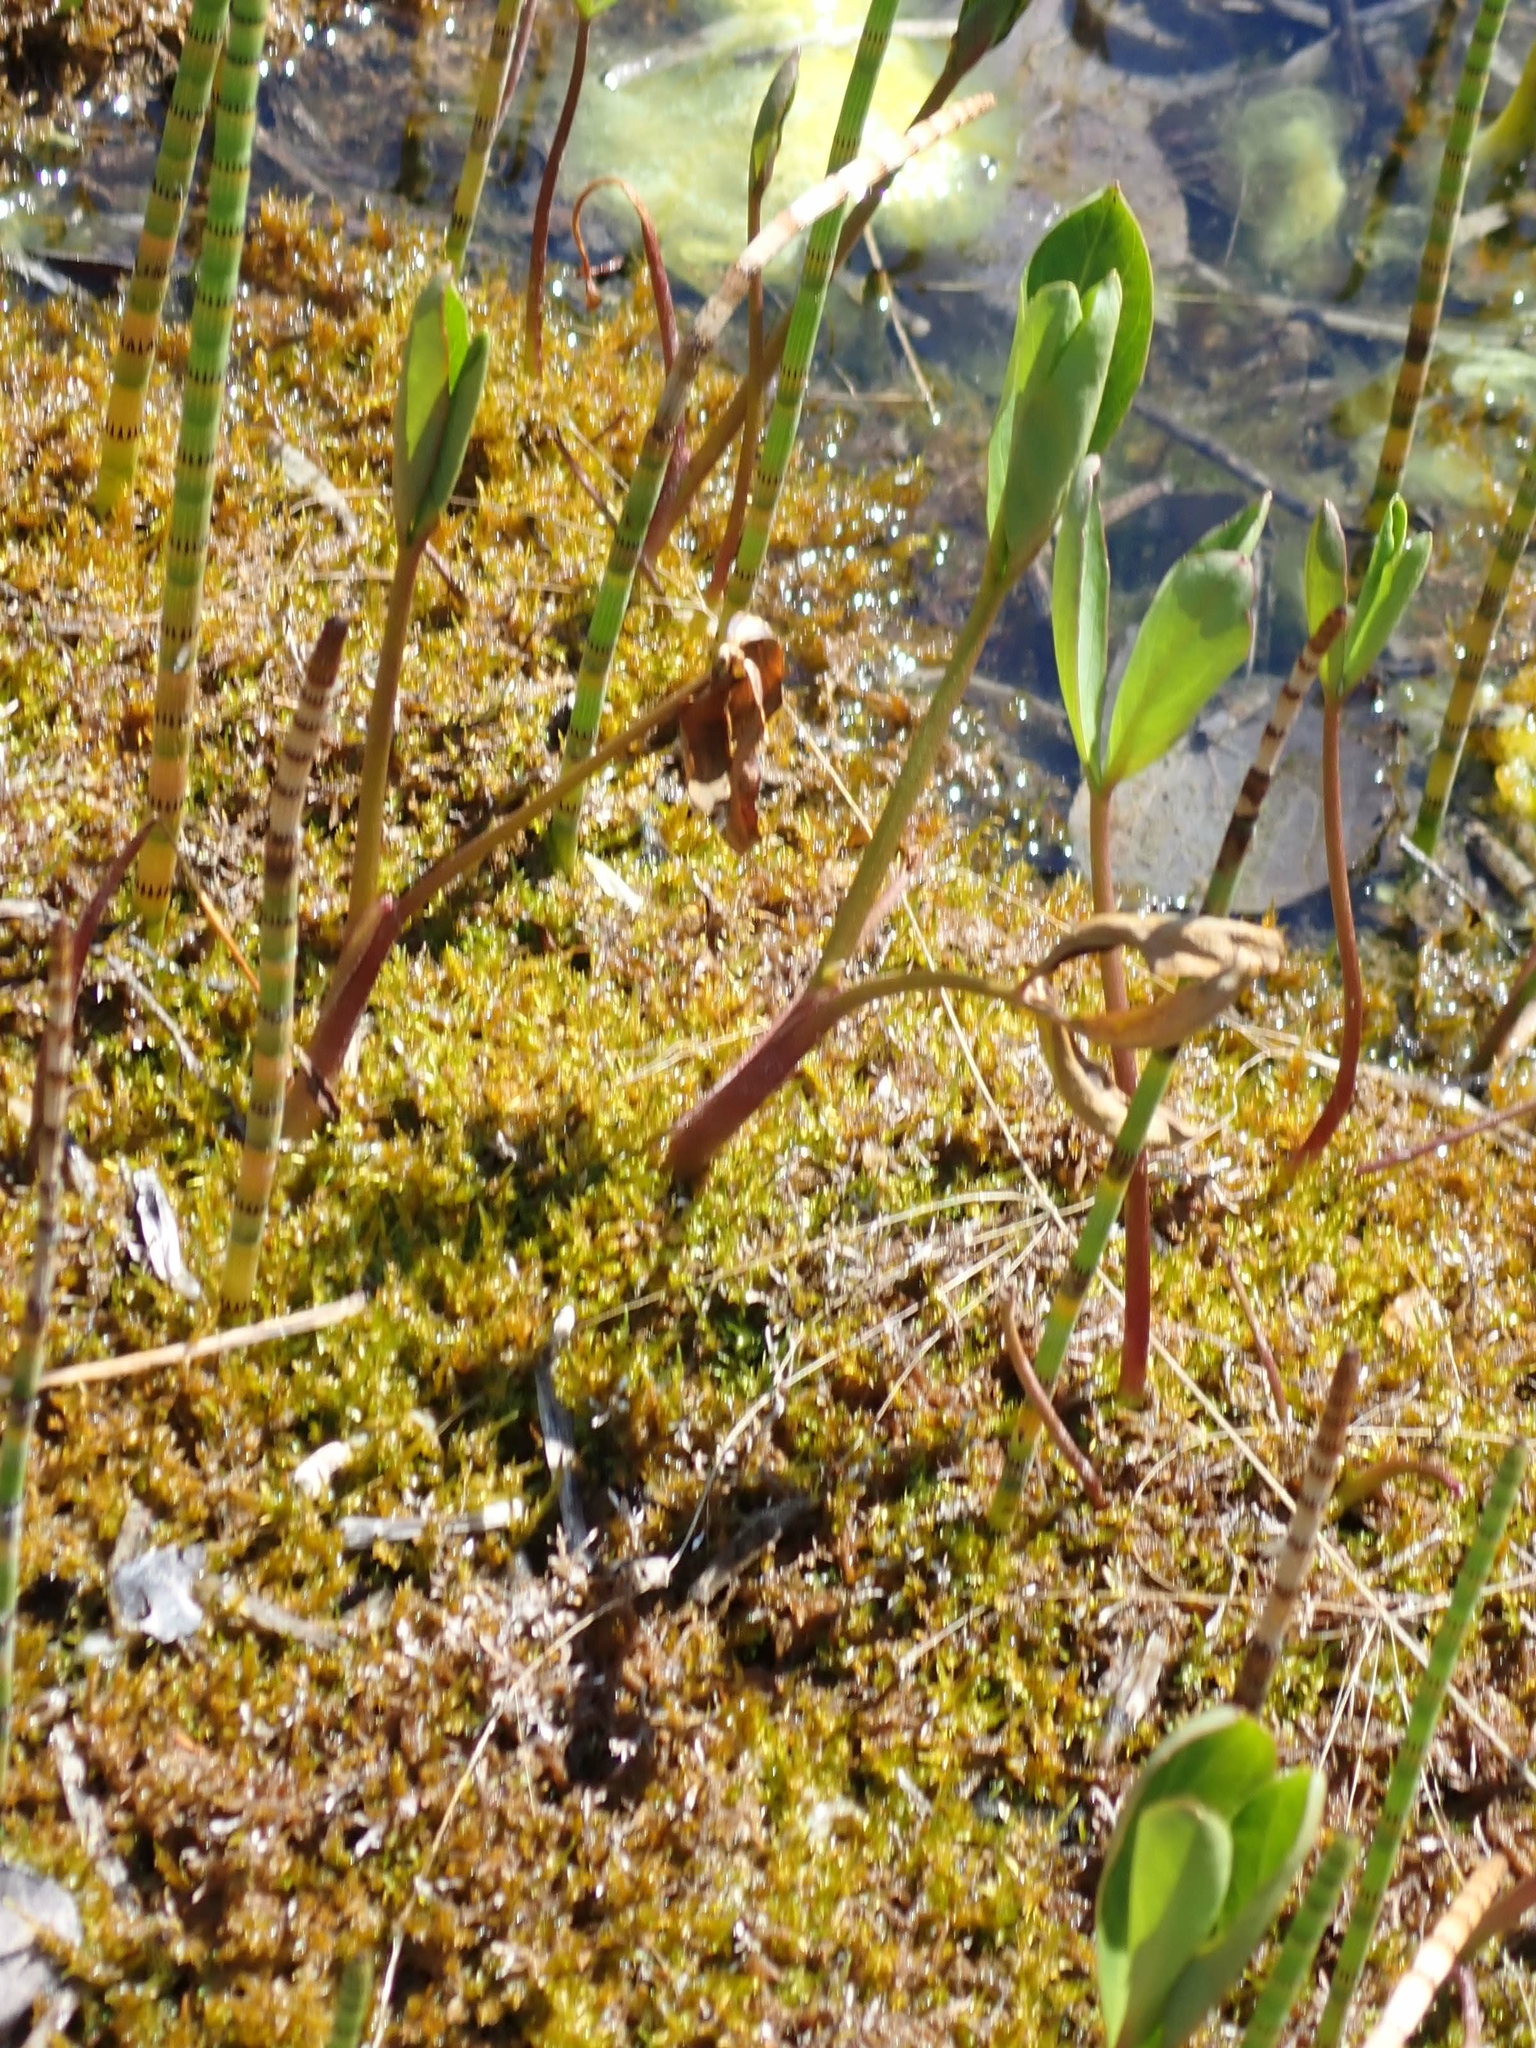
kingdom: Plantae
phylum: Tracheophyta
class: Magnoliopsida
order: Asterales
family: Menyanthaceae
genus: Menyanthes
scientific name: Menyanthes trifoliata
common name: Bogbean
